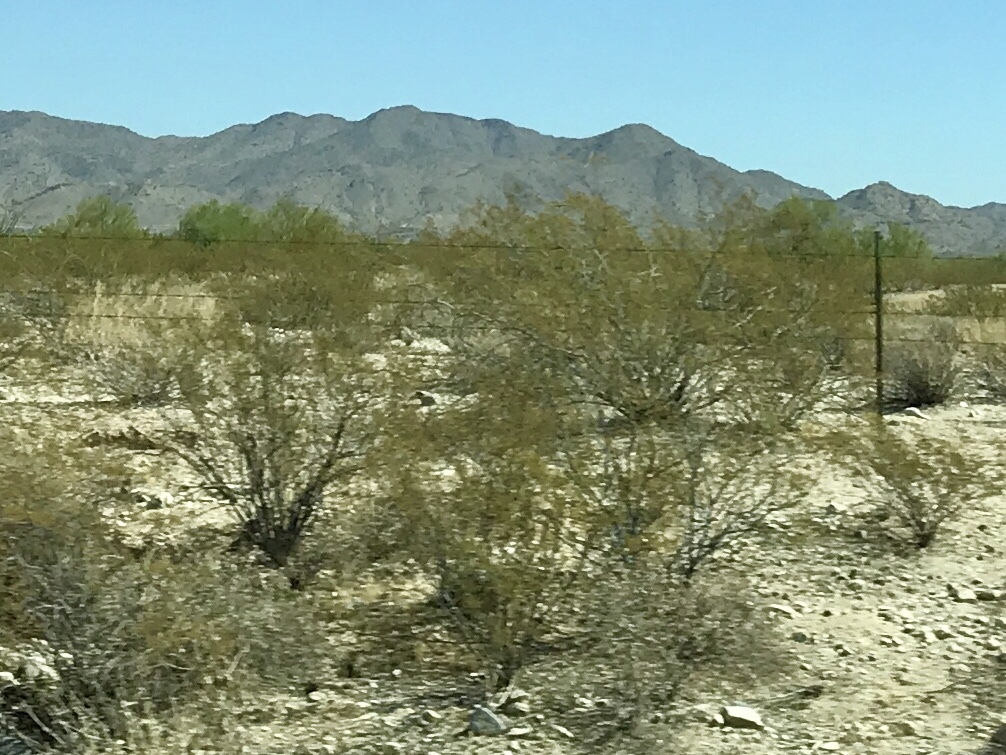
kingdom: Plantae
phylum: Tracheophyta
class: Magnoliopsida
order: Zygophyllales
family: Zygophyllaceae
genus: Larrea
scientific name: Larrea tridentata
